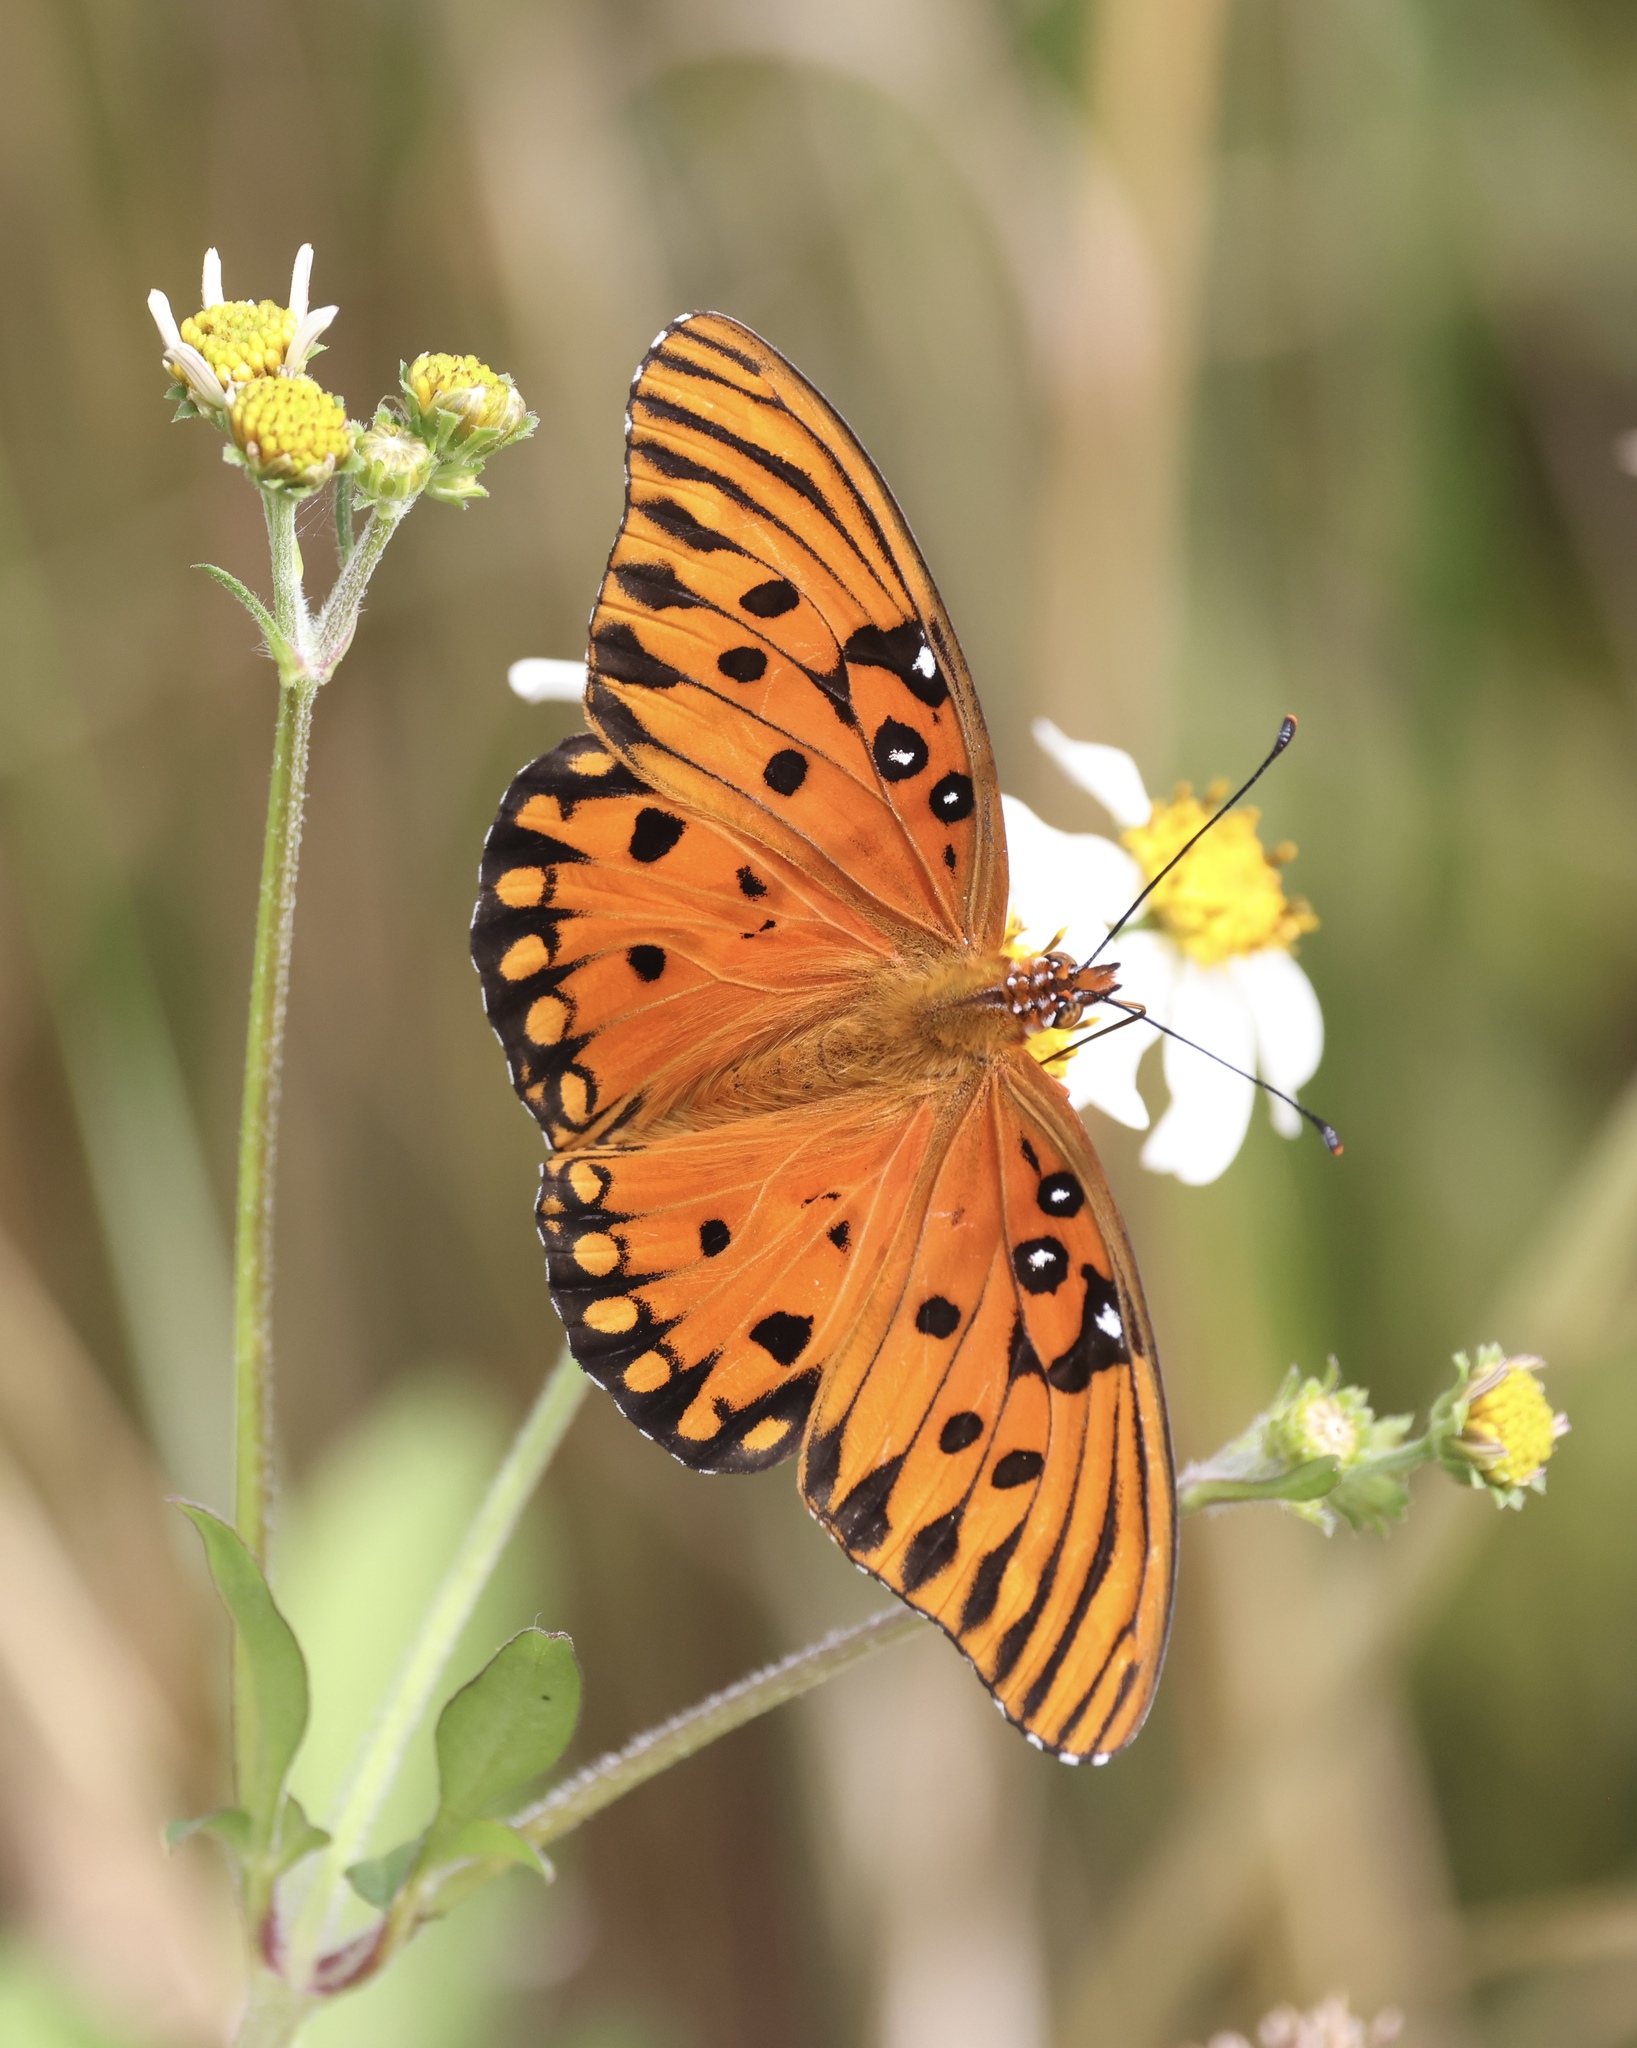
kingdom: Animalia
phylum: Arthropoda
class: Insecta
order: Lepidoptera
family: Nymphalidae
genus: Dione
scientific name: Dione vanillae
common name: Gulf fritillary
